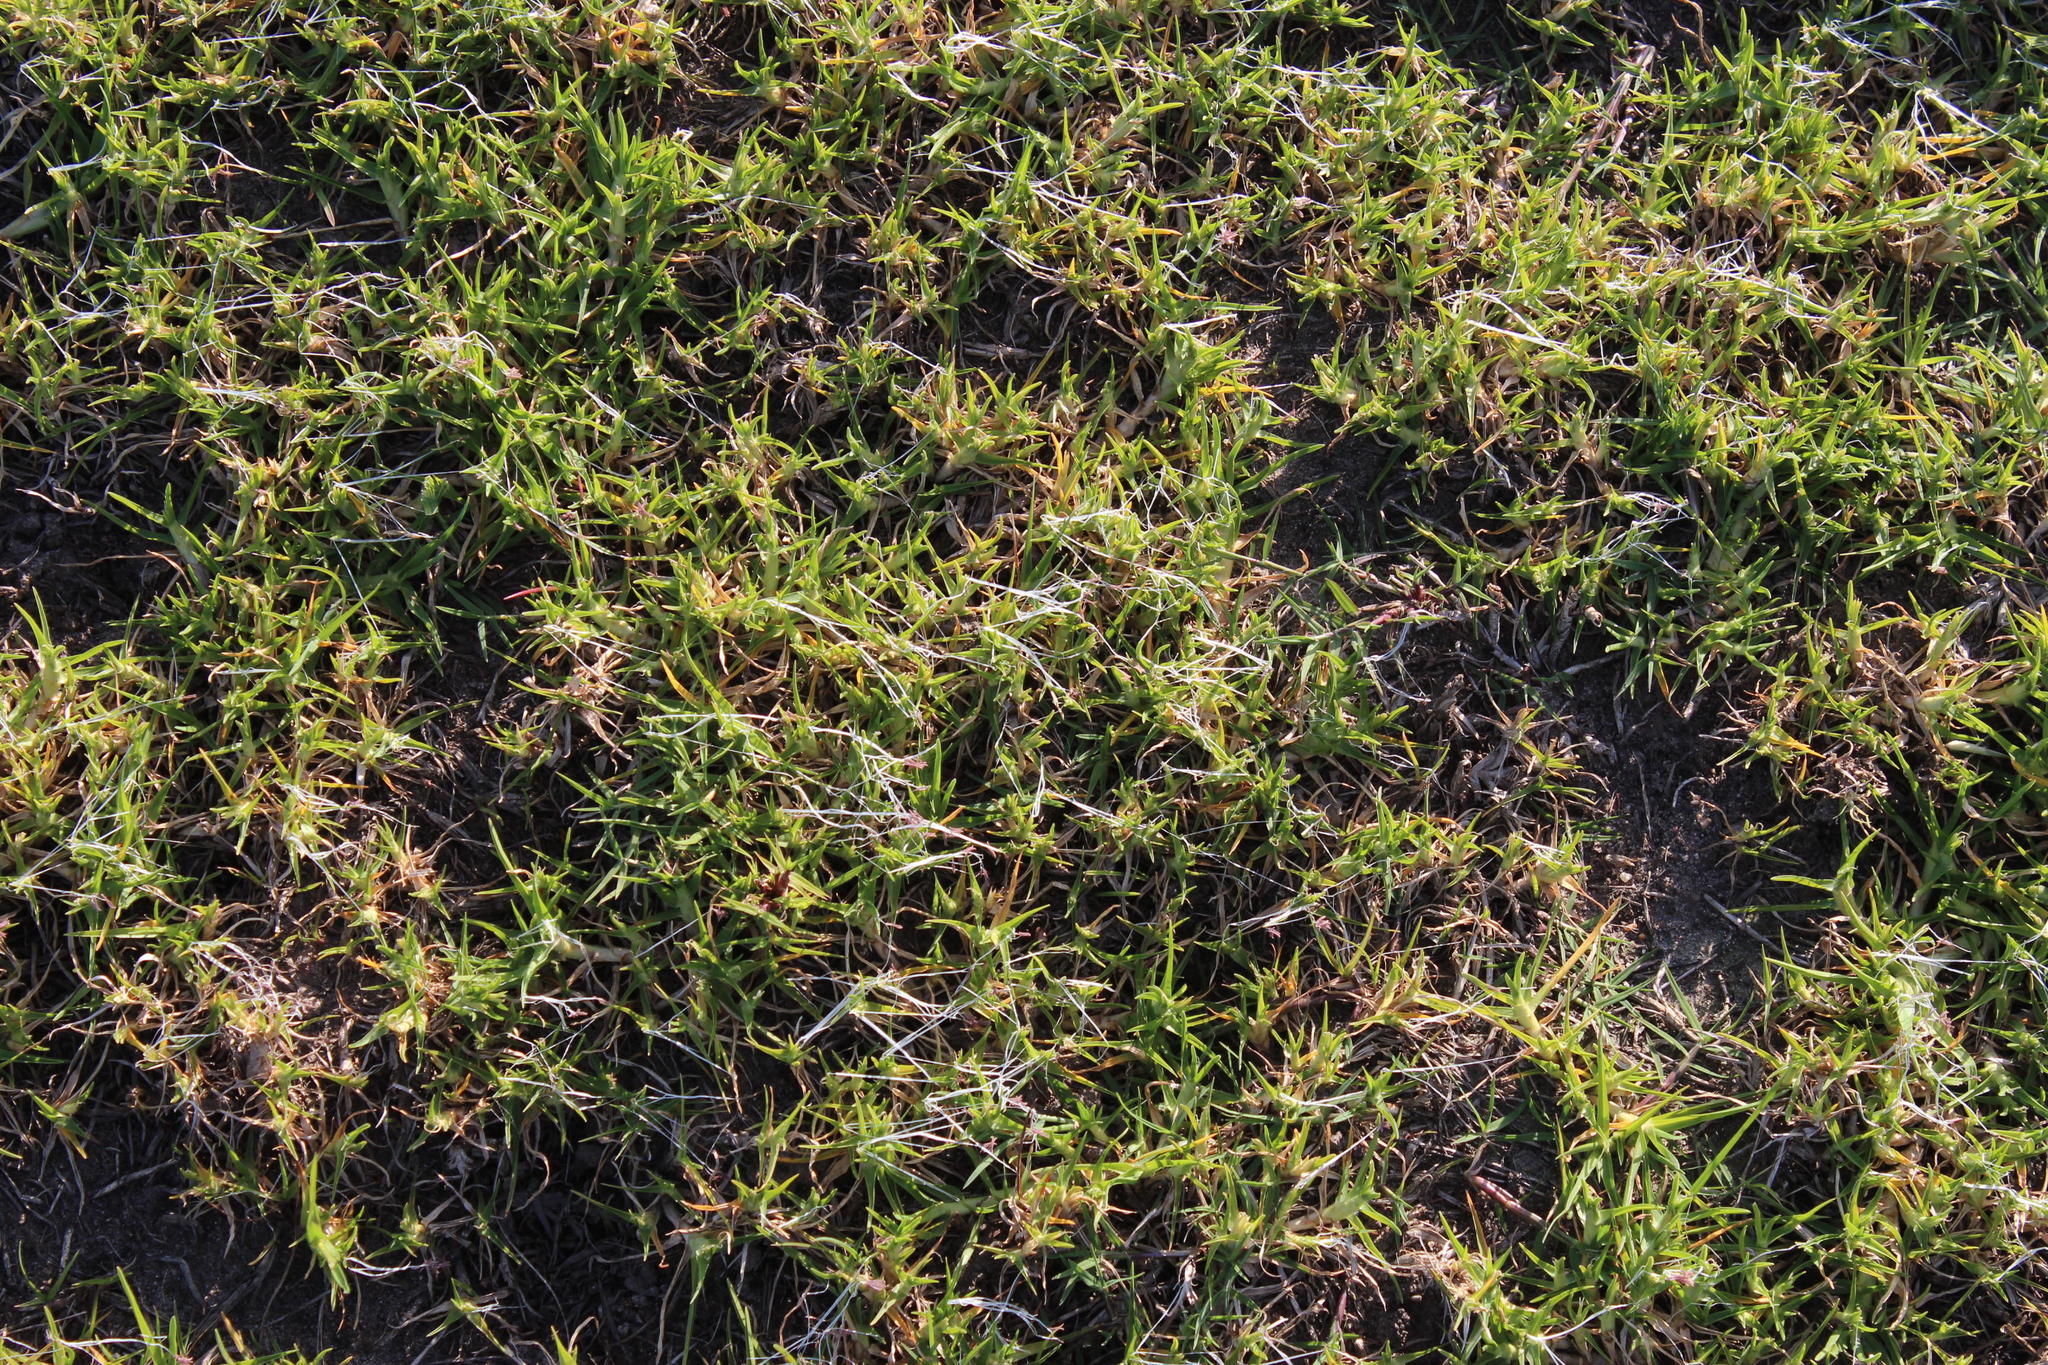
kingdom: Plantae
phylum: Tracheophyta
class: Liliopsida
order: Poales
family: Poaceae
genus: Cenchrus
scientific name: Cenchrus clandestinus
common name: Kikuyugrass
